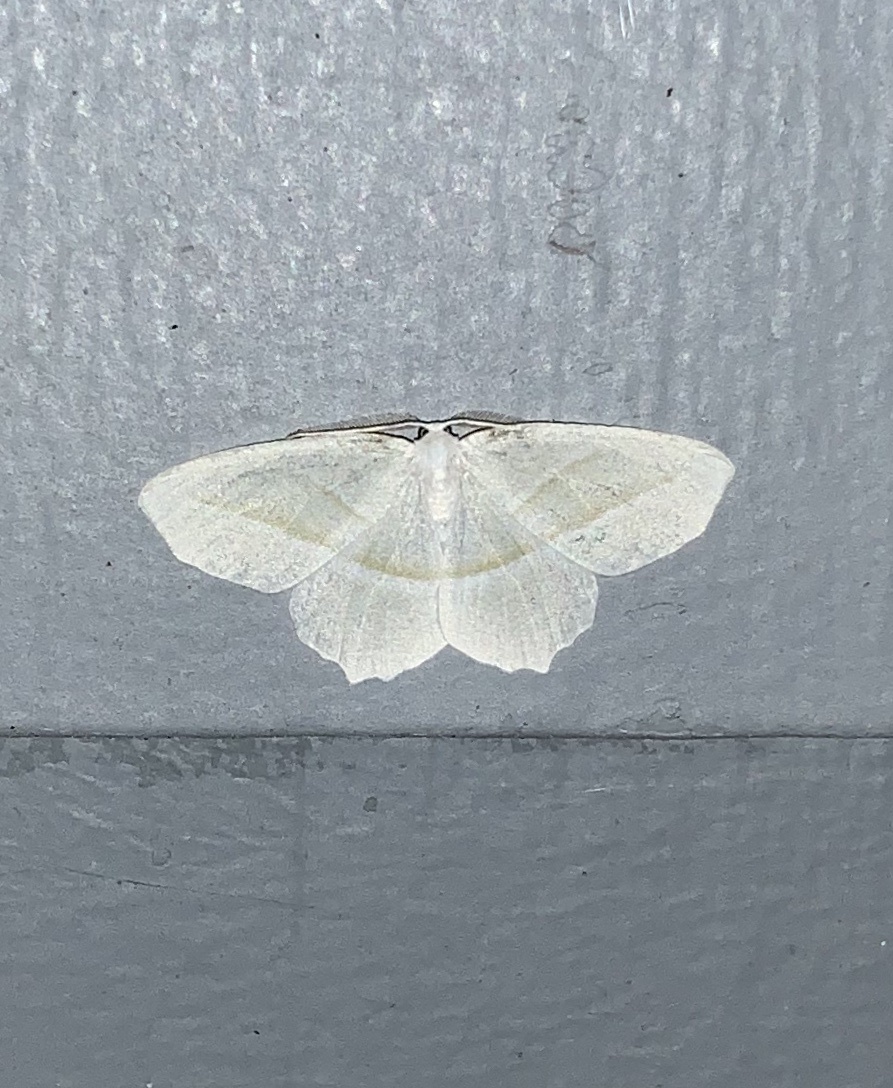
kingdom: Animalia
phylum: Arthropoda
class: Insecta
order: Lepidoptera
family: Geometridae
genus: Campaea
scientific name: Campaea perlata
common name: Fringed looper
